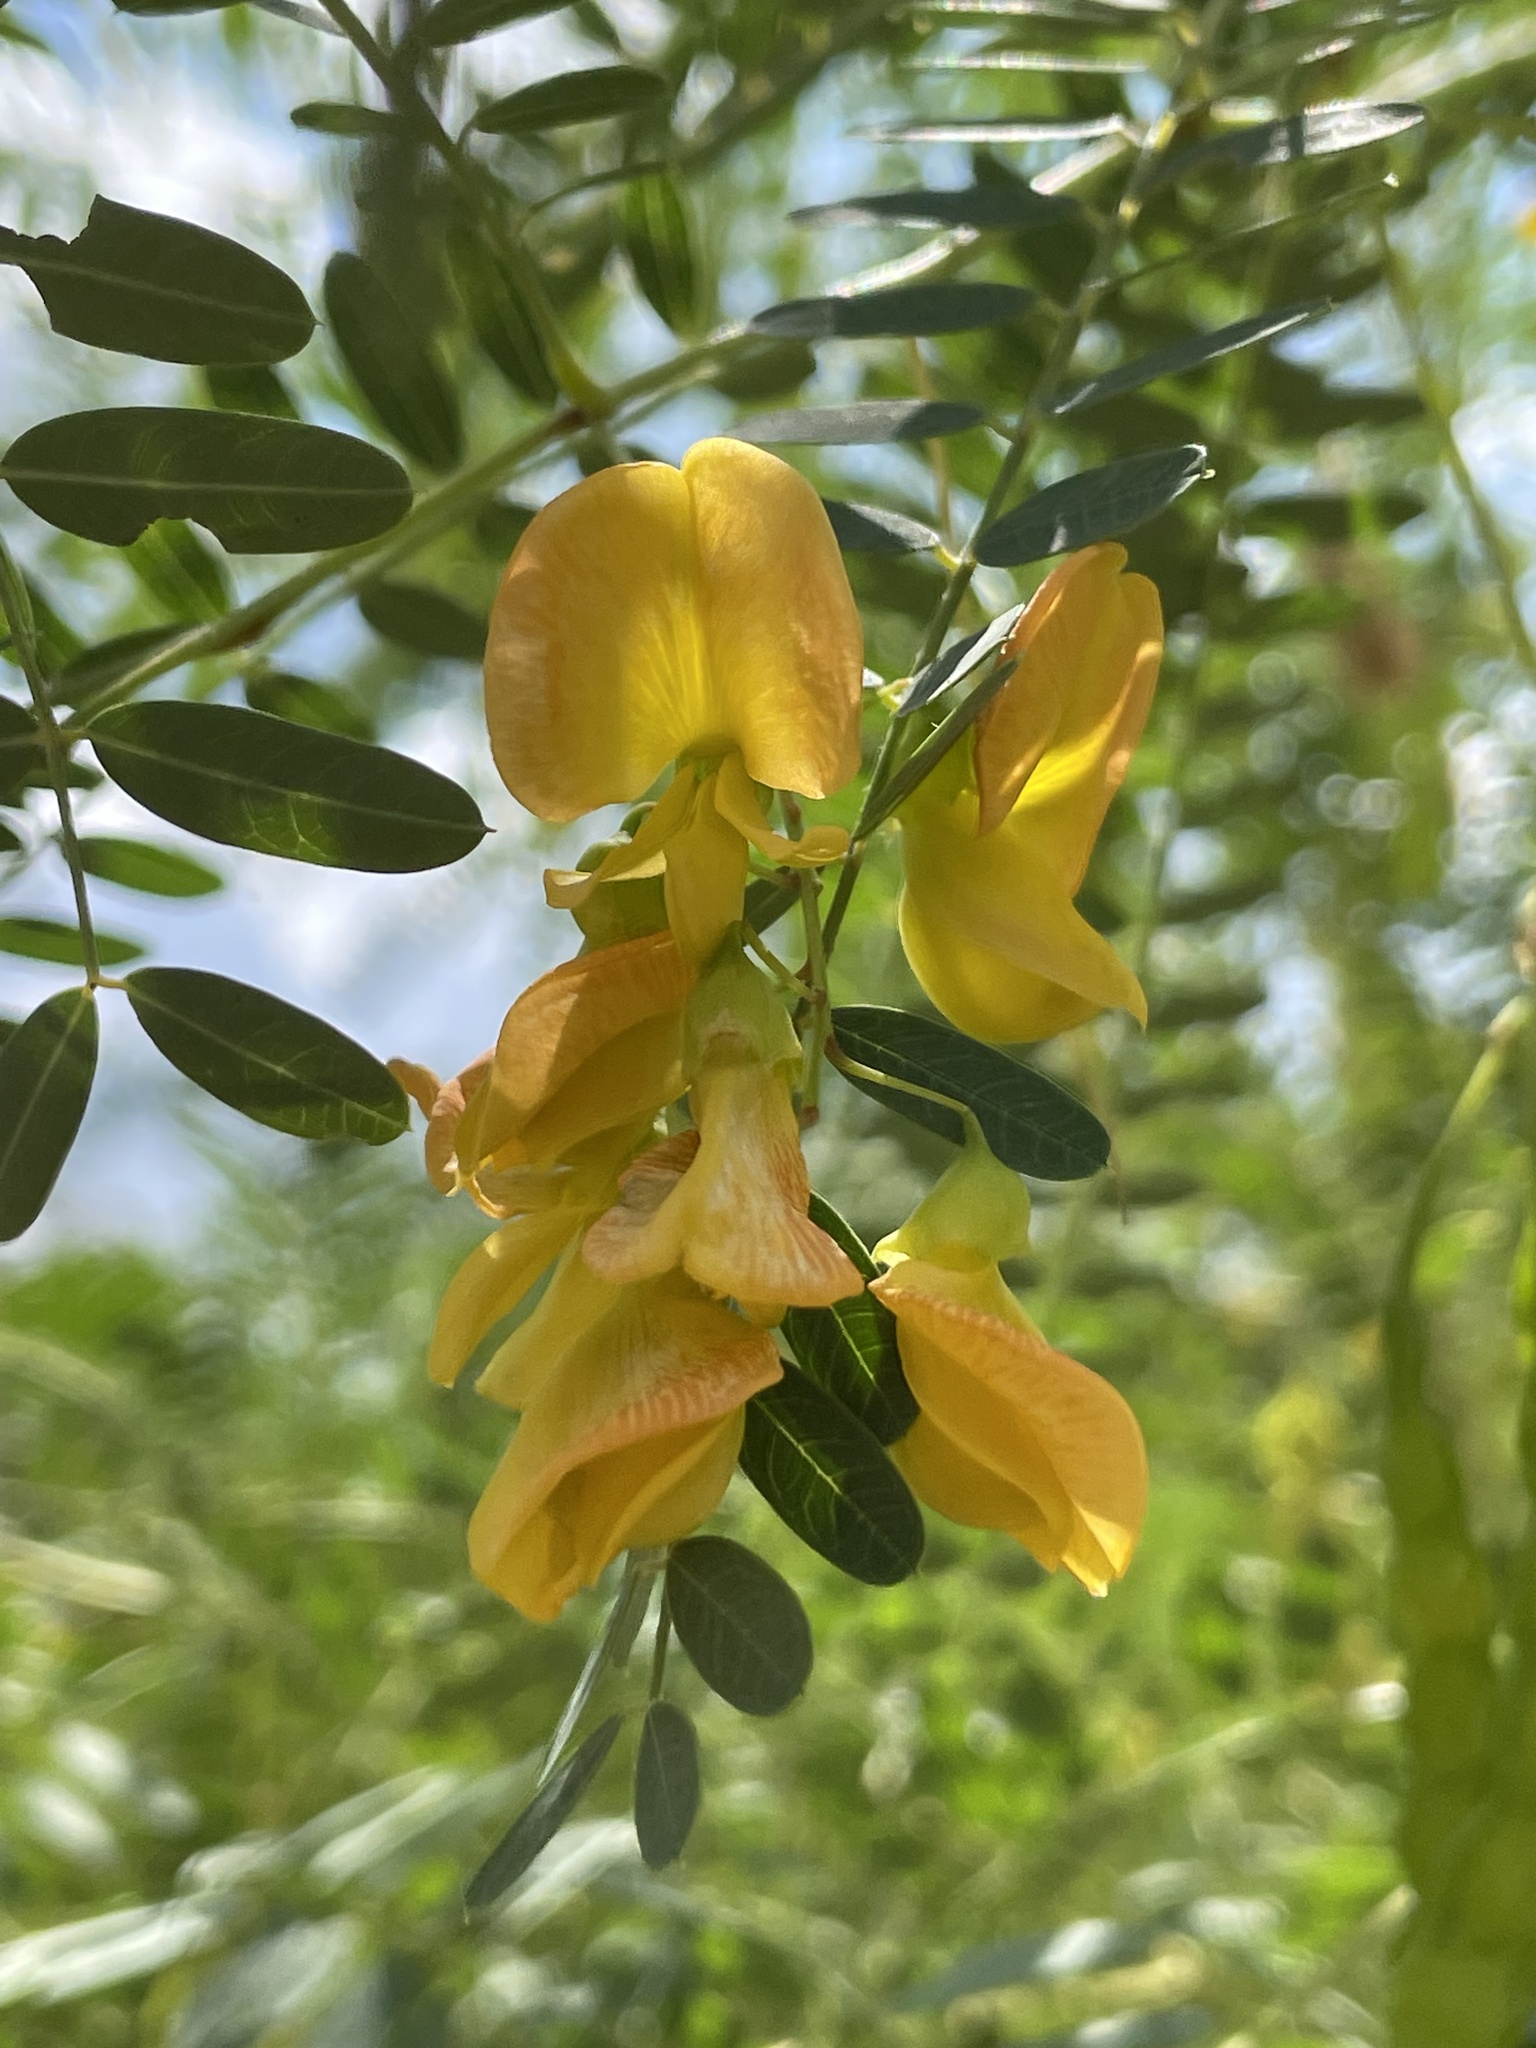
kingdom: Plantae
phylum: Tracheophyta
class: Magnoliopsida
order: Fabales
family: Fabaceae
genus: Sesbania
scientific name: Sesbania drummondii
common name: Poison-bean
